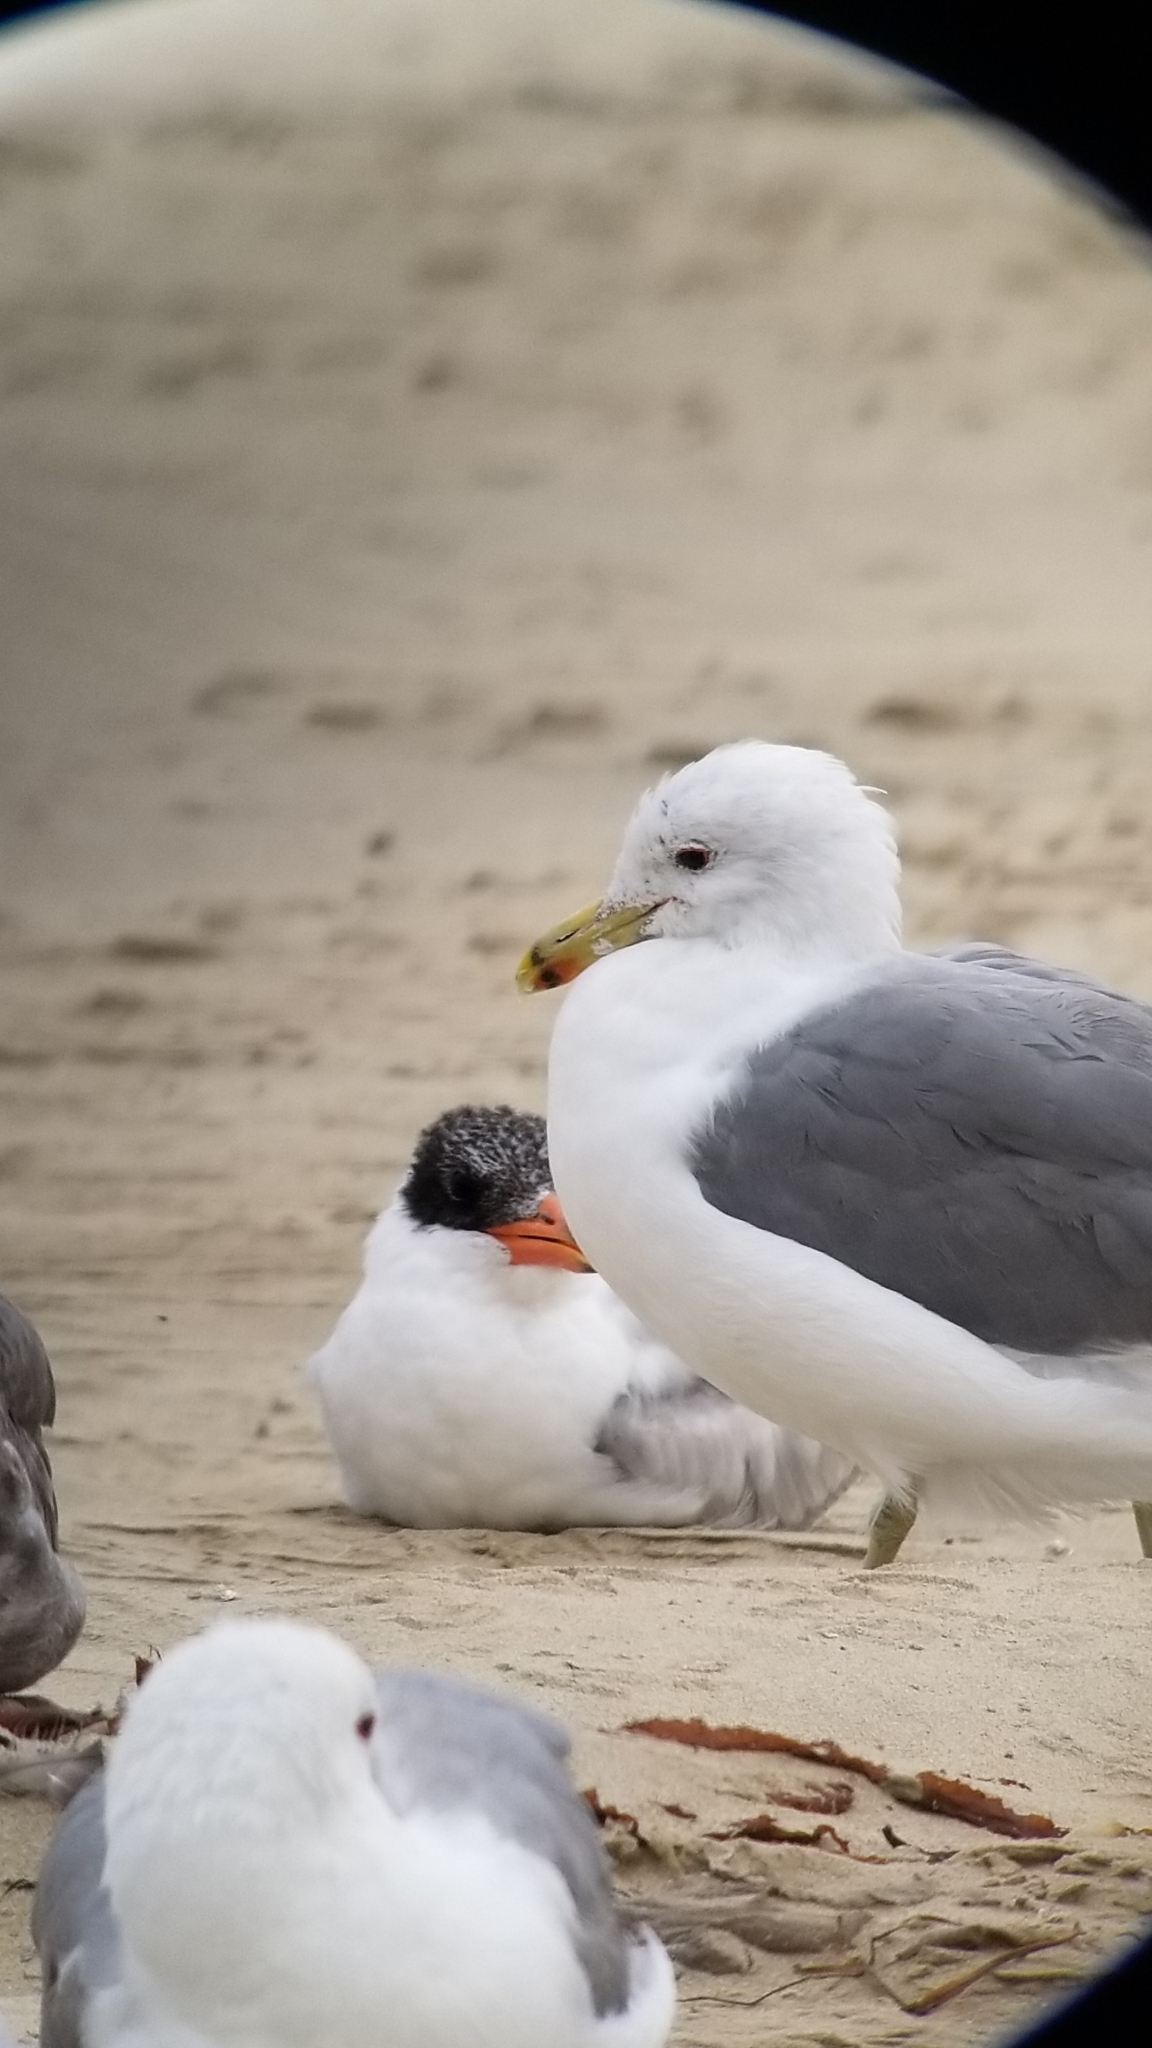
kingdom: Animalia
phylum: Chordata
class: Aves
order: Charadriiformes
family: Laridae
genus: Larus
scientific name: Larus californicus
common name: California gull
